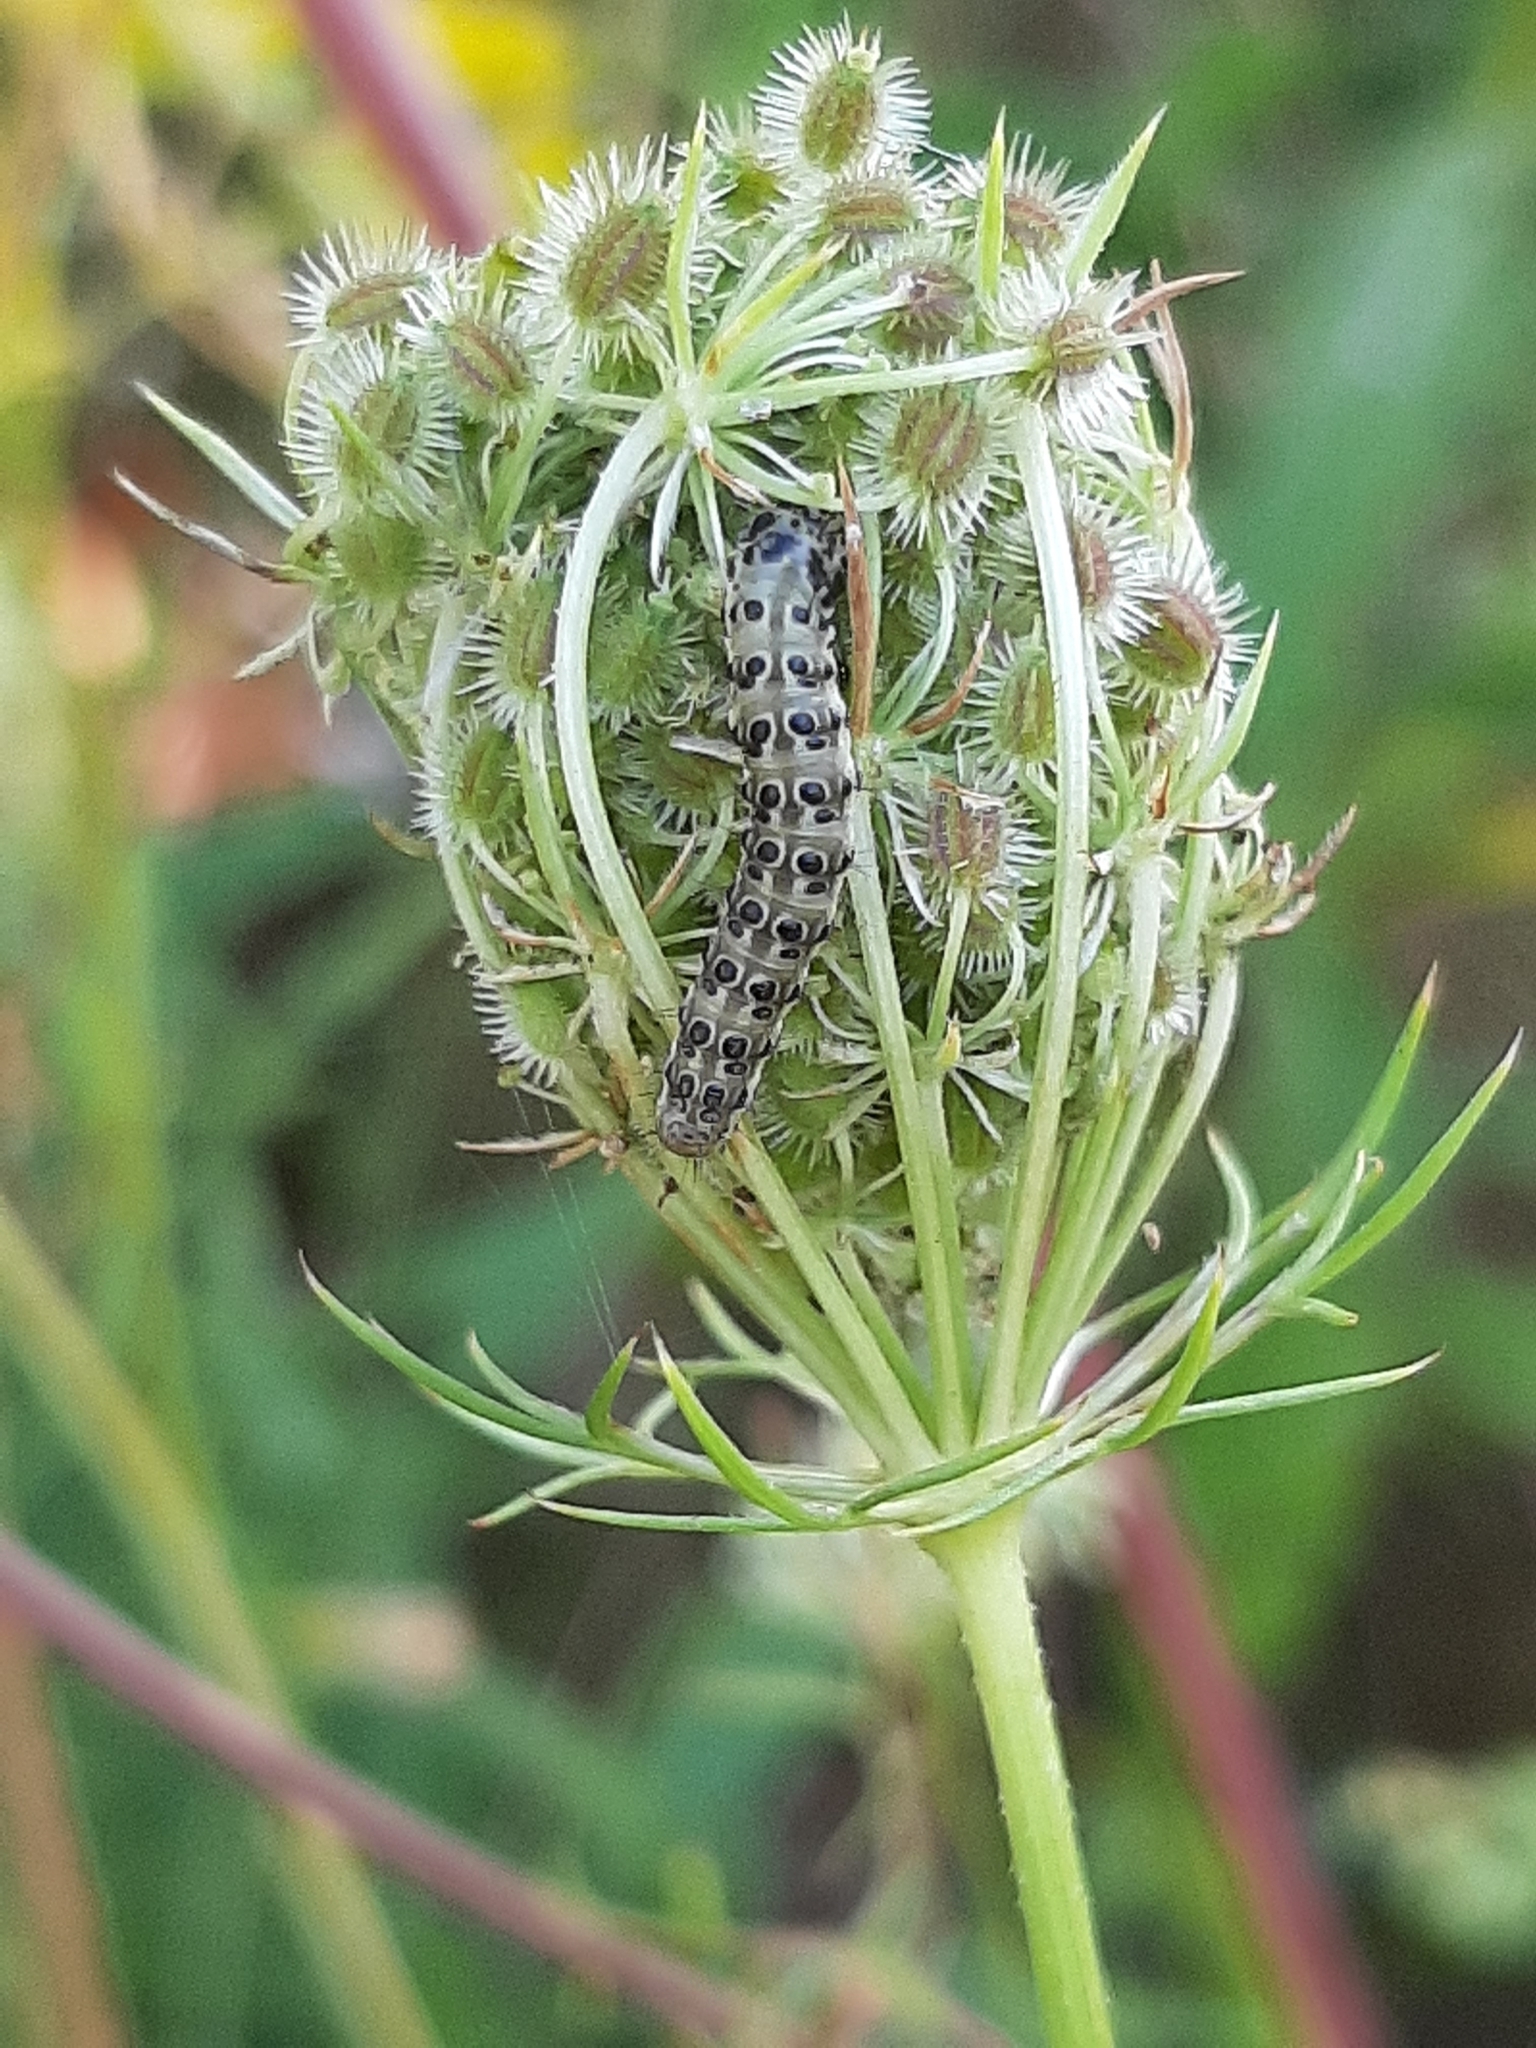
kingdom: Animalia
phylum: Arthropoda
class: Insecta
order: Lepidoptera
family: Crambidae
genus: Sitochroa
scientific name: Sitochroa palealis
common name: Greenish-yellow sitochroa moth
